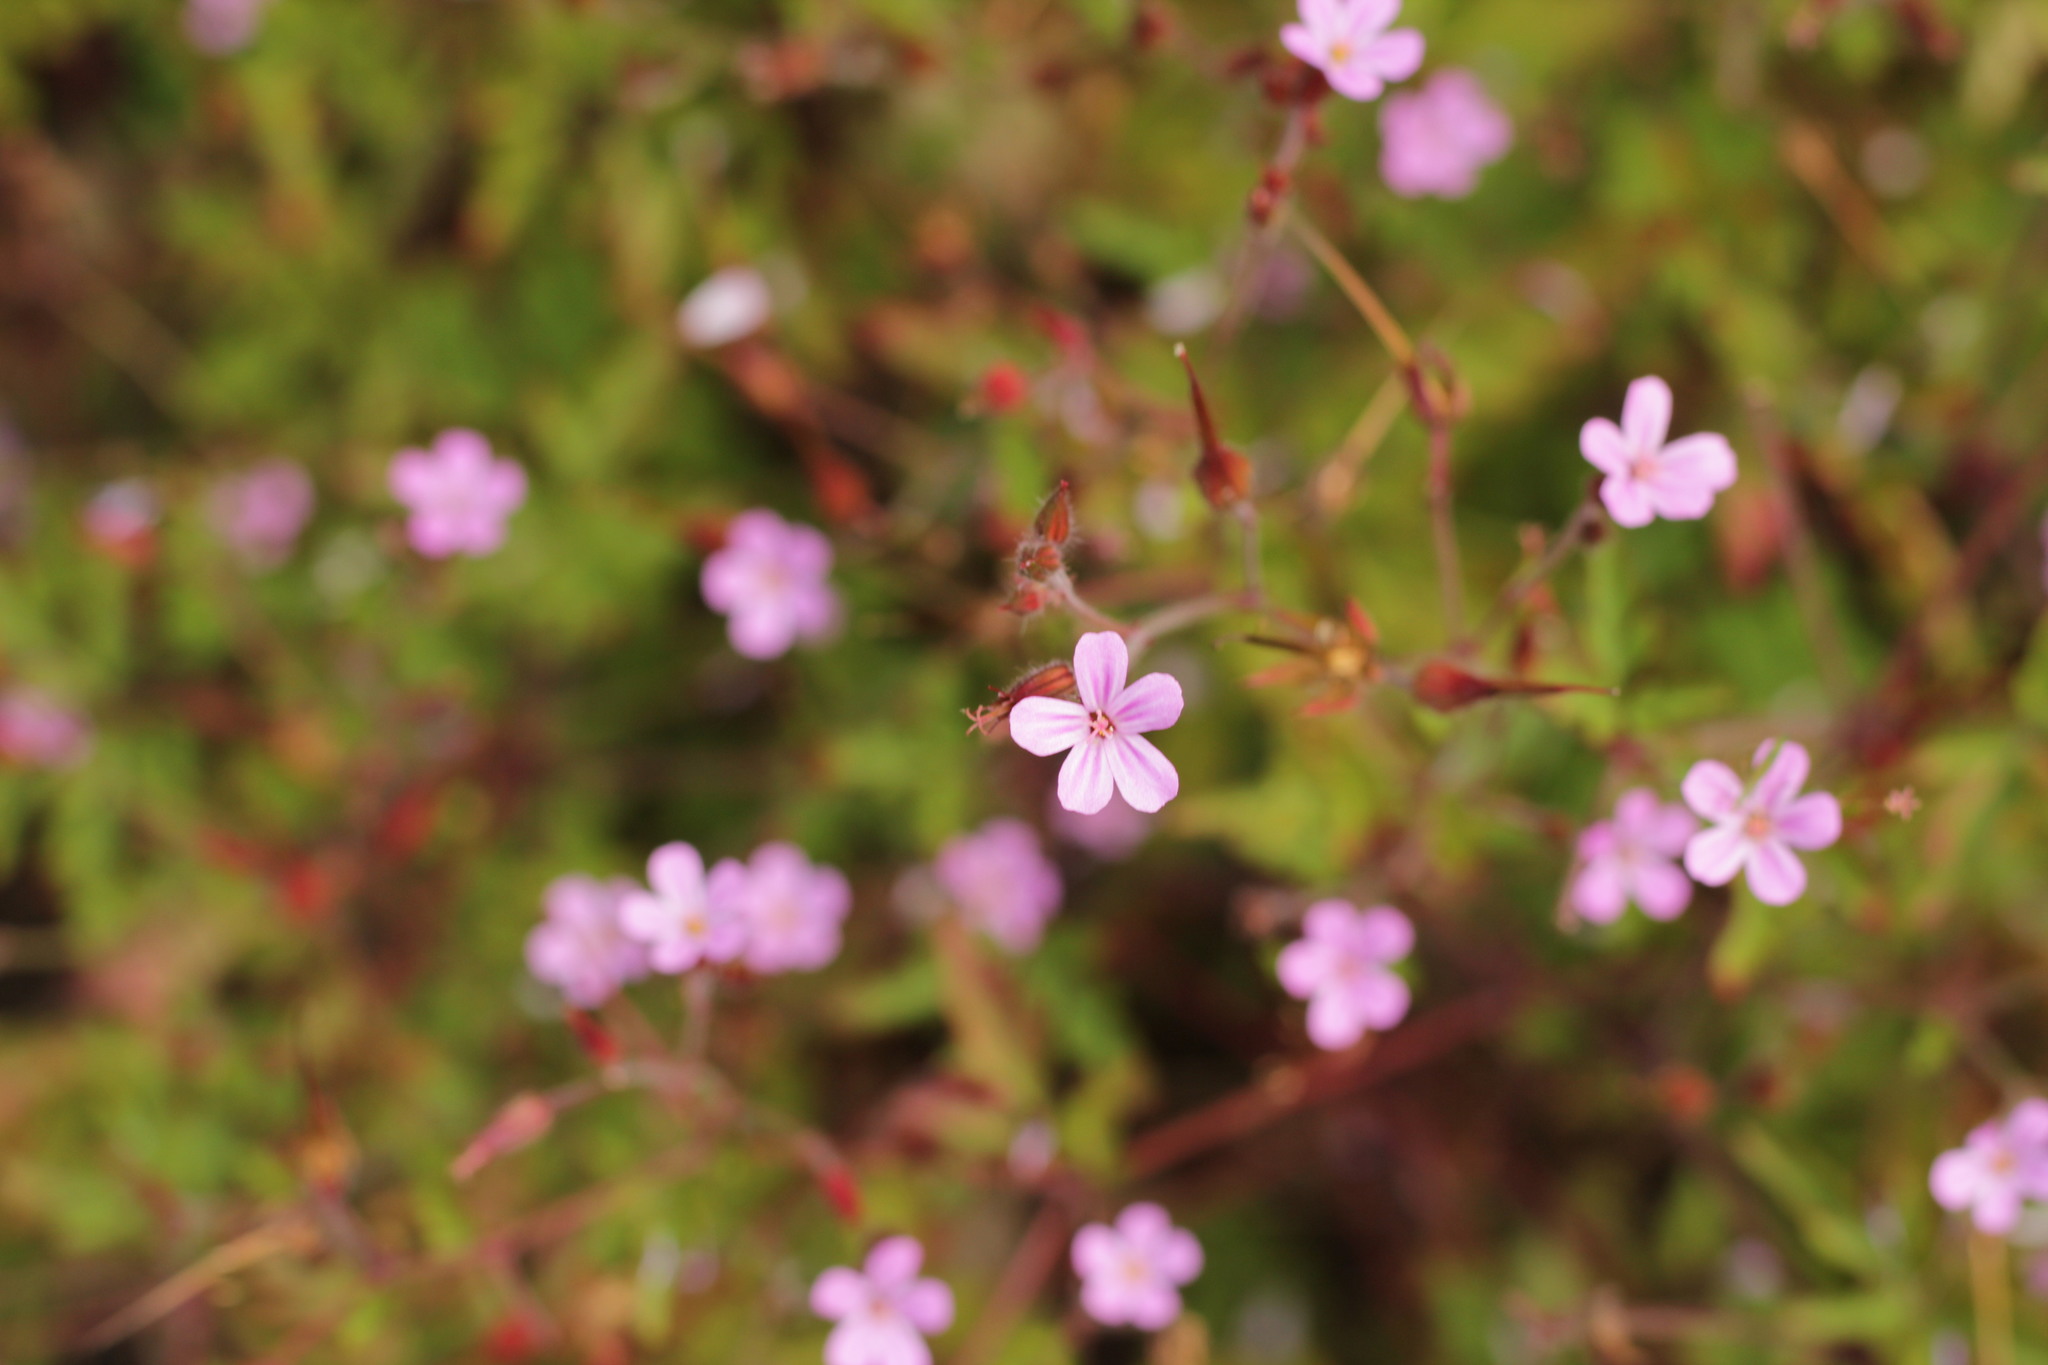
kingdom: Plantae
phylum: Tracheophyta
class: Magnoliopsida
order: Geraniales
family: Geraniaceae
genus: Geranium
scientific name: Geranium robertianum
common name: Herb-robert
